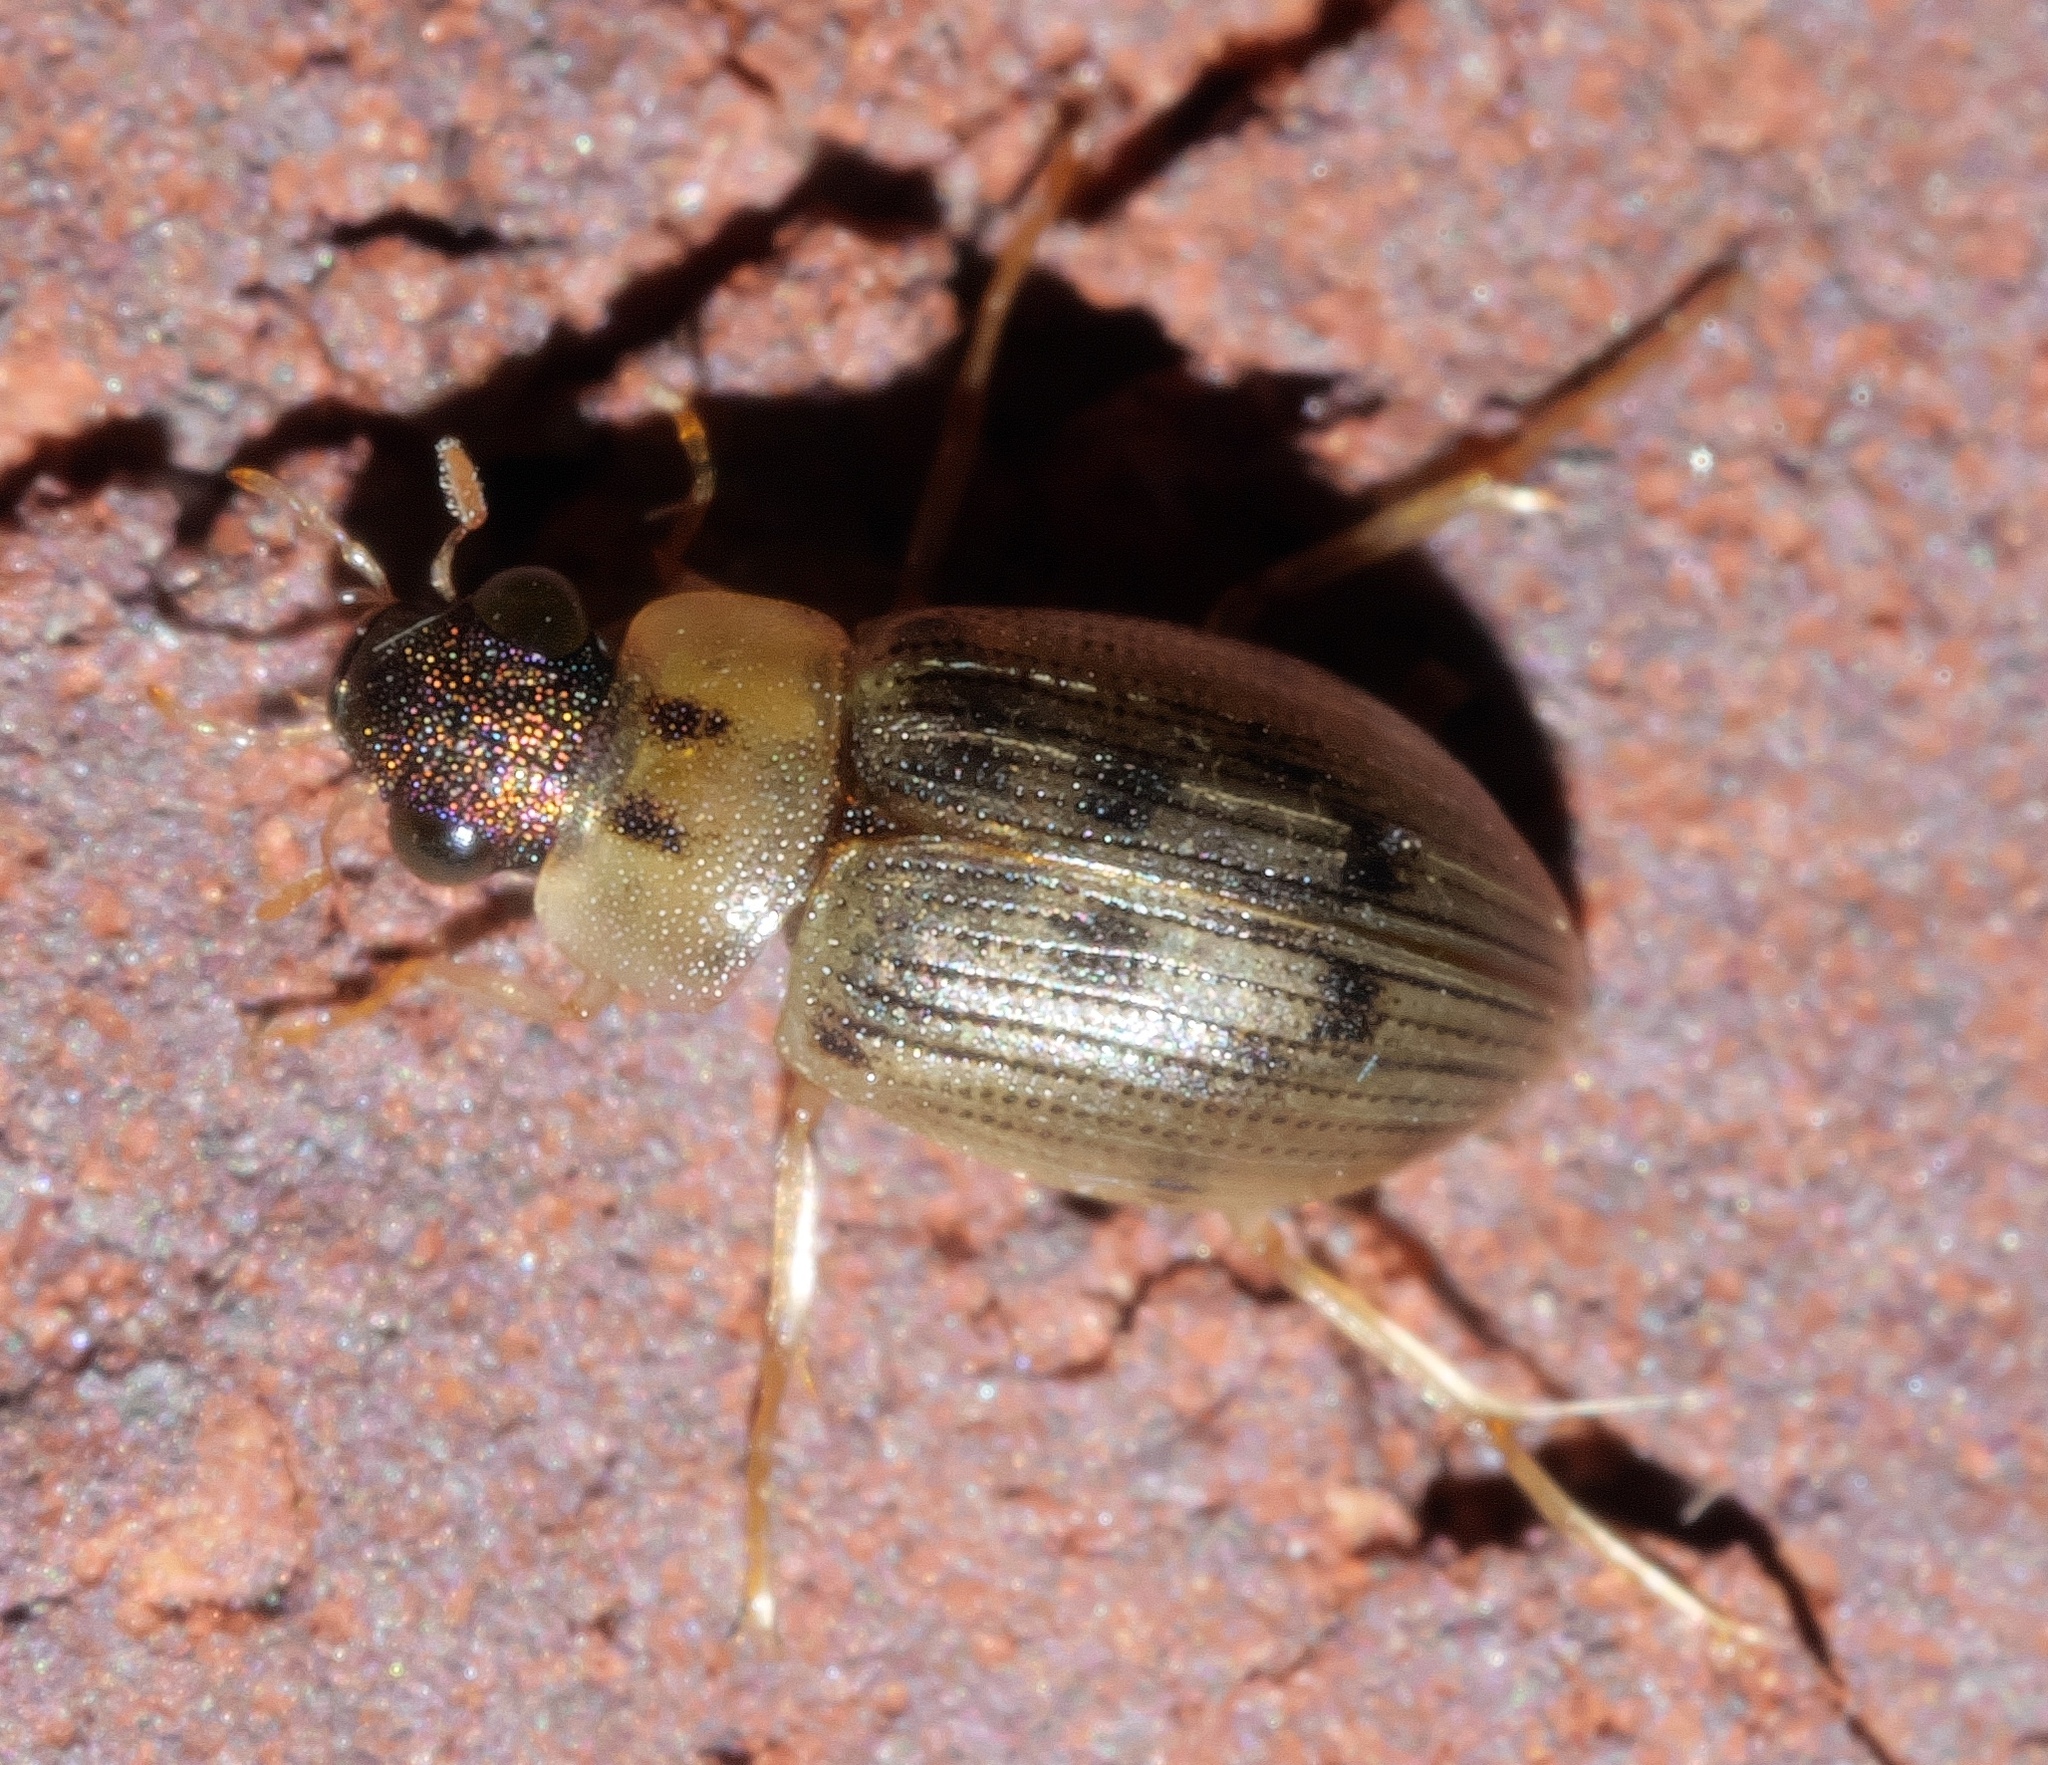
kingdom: Animalia
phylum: Arthropoda
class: Insecta
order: Coleoptera
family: Hydrophilidae
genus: Berosus
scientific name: Berosus
